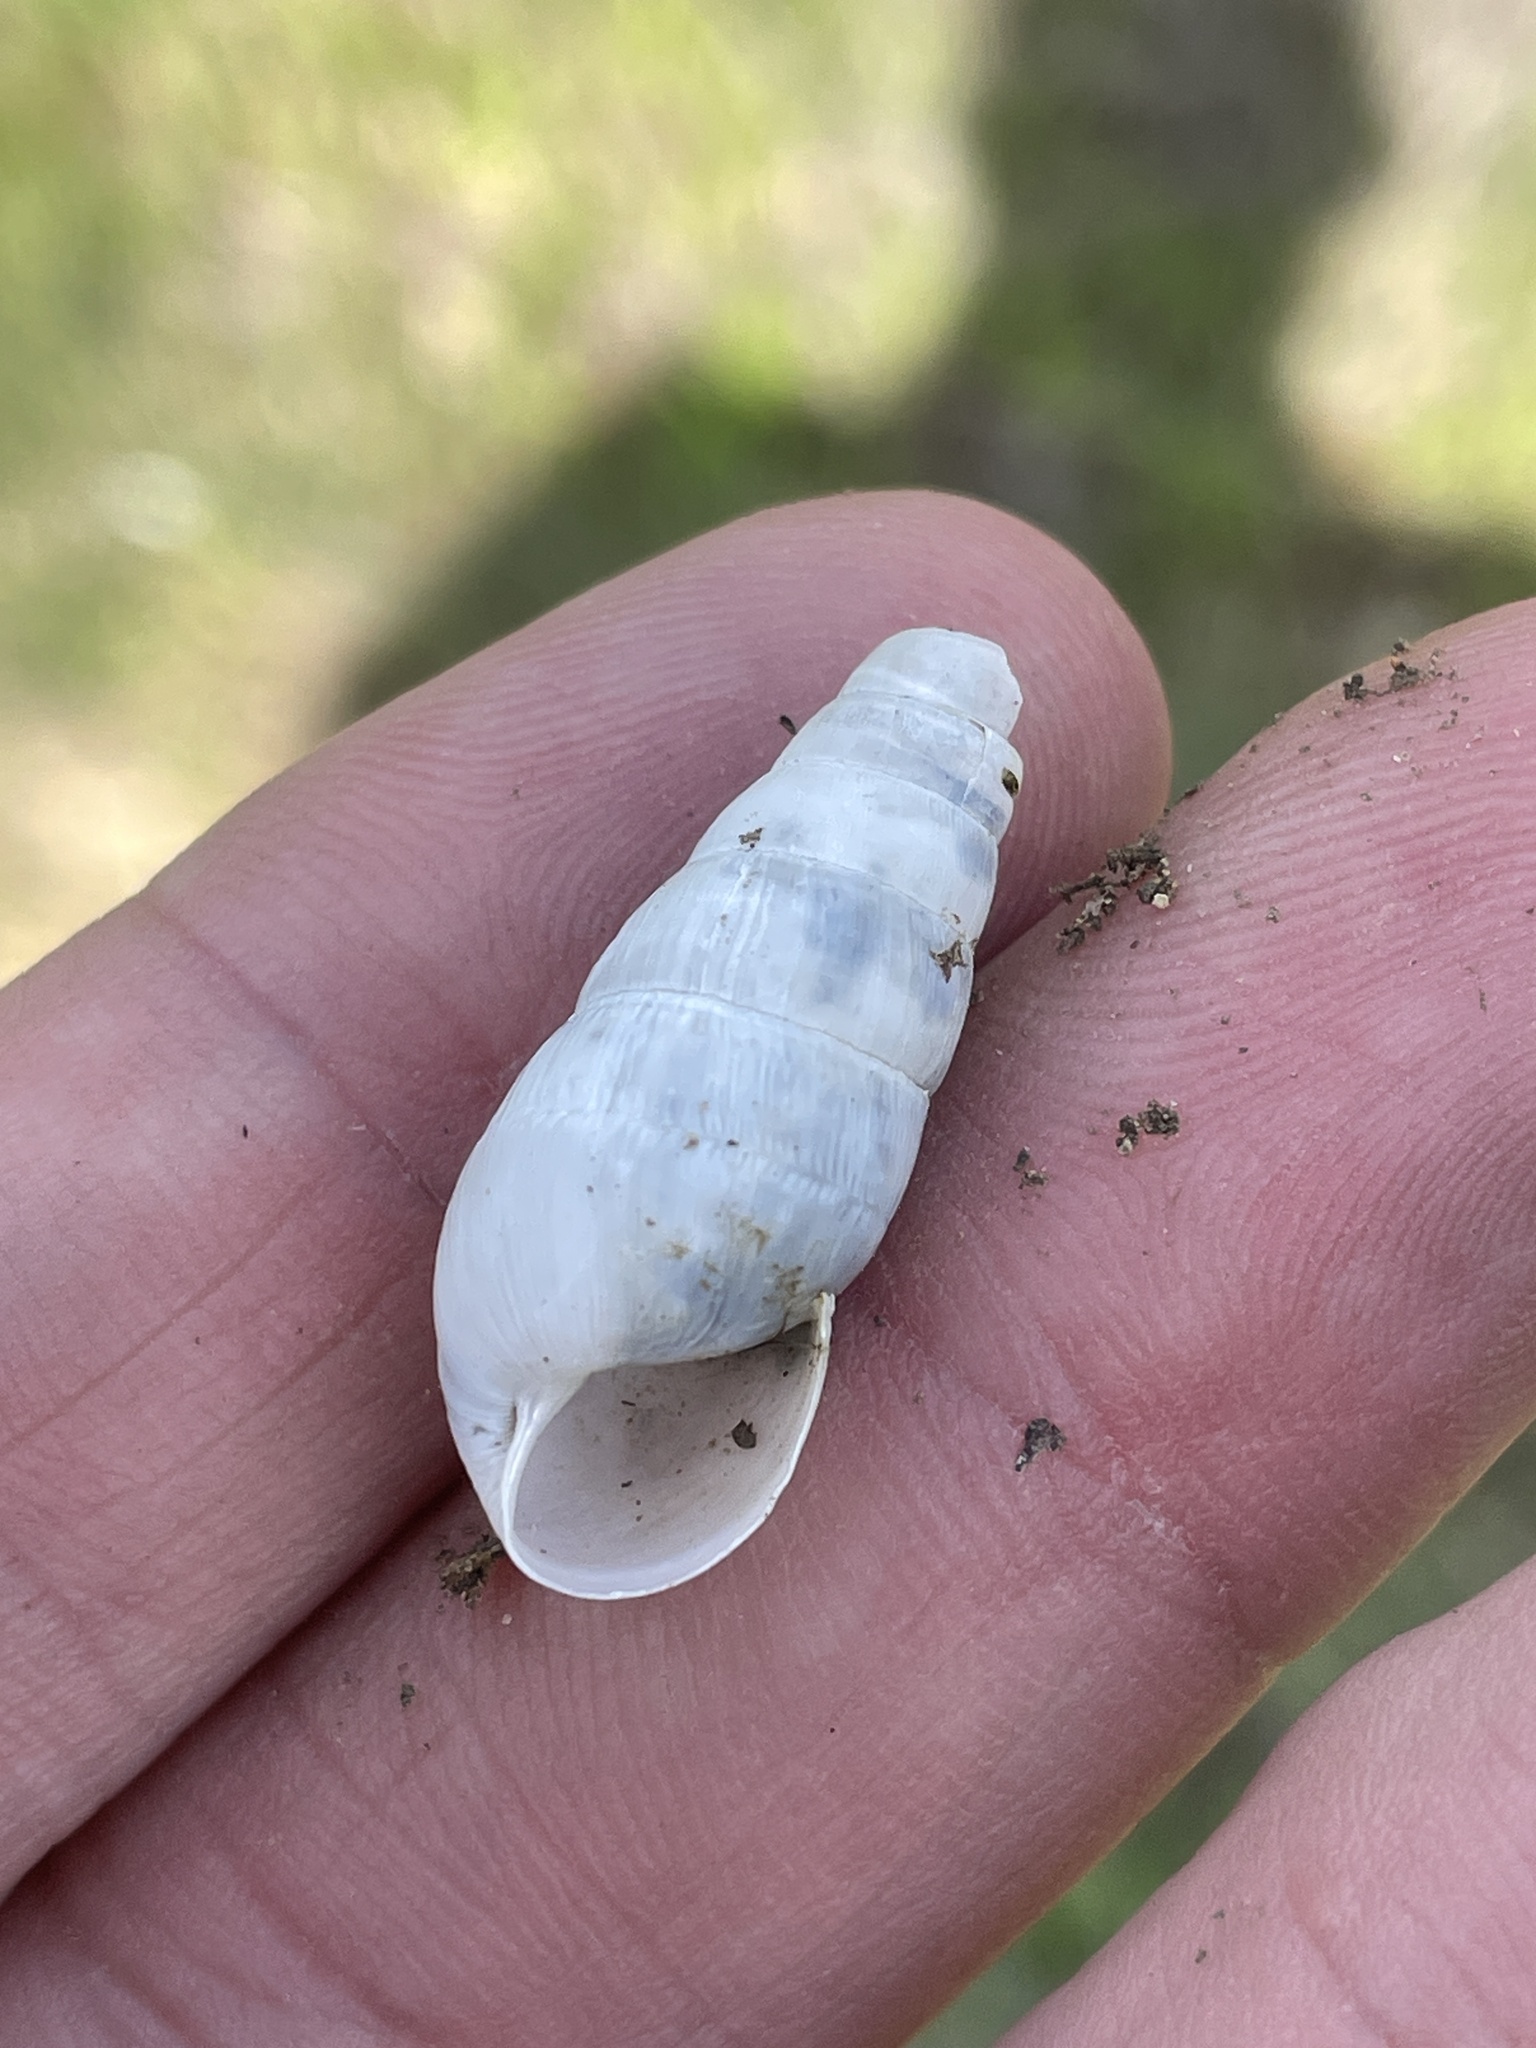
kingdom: Animalia
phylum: Mollusca
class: Gastropoda
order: Stylommatophora
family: Achatinidae
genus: Rumina
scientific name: Rumina decollata
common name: Decollate snail
